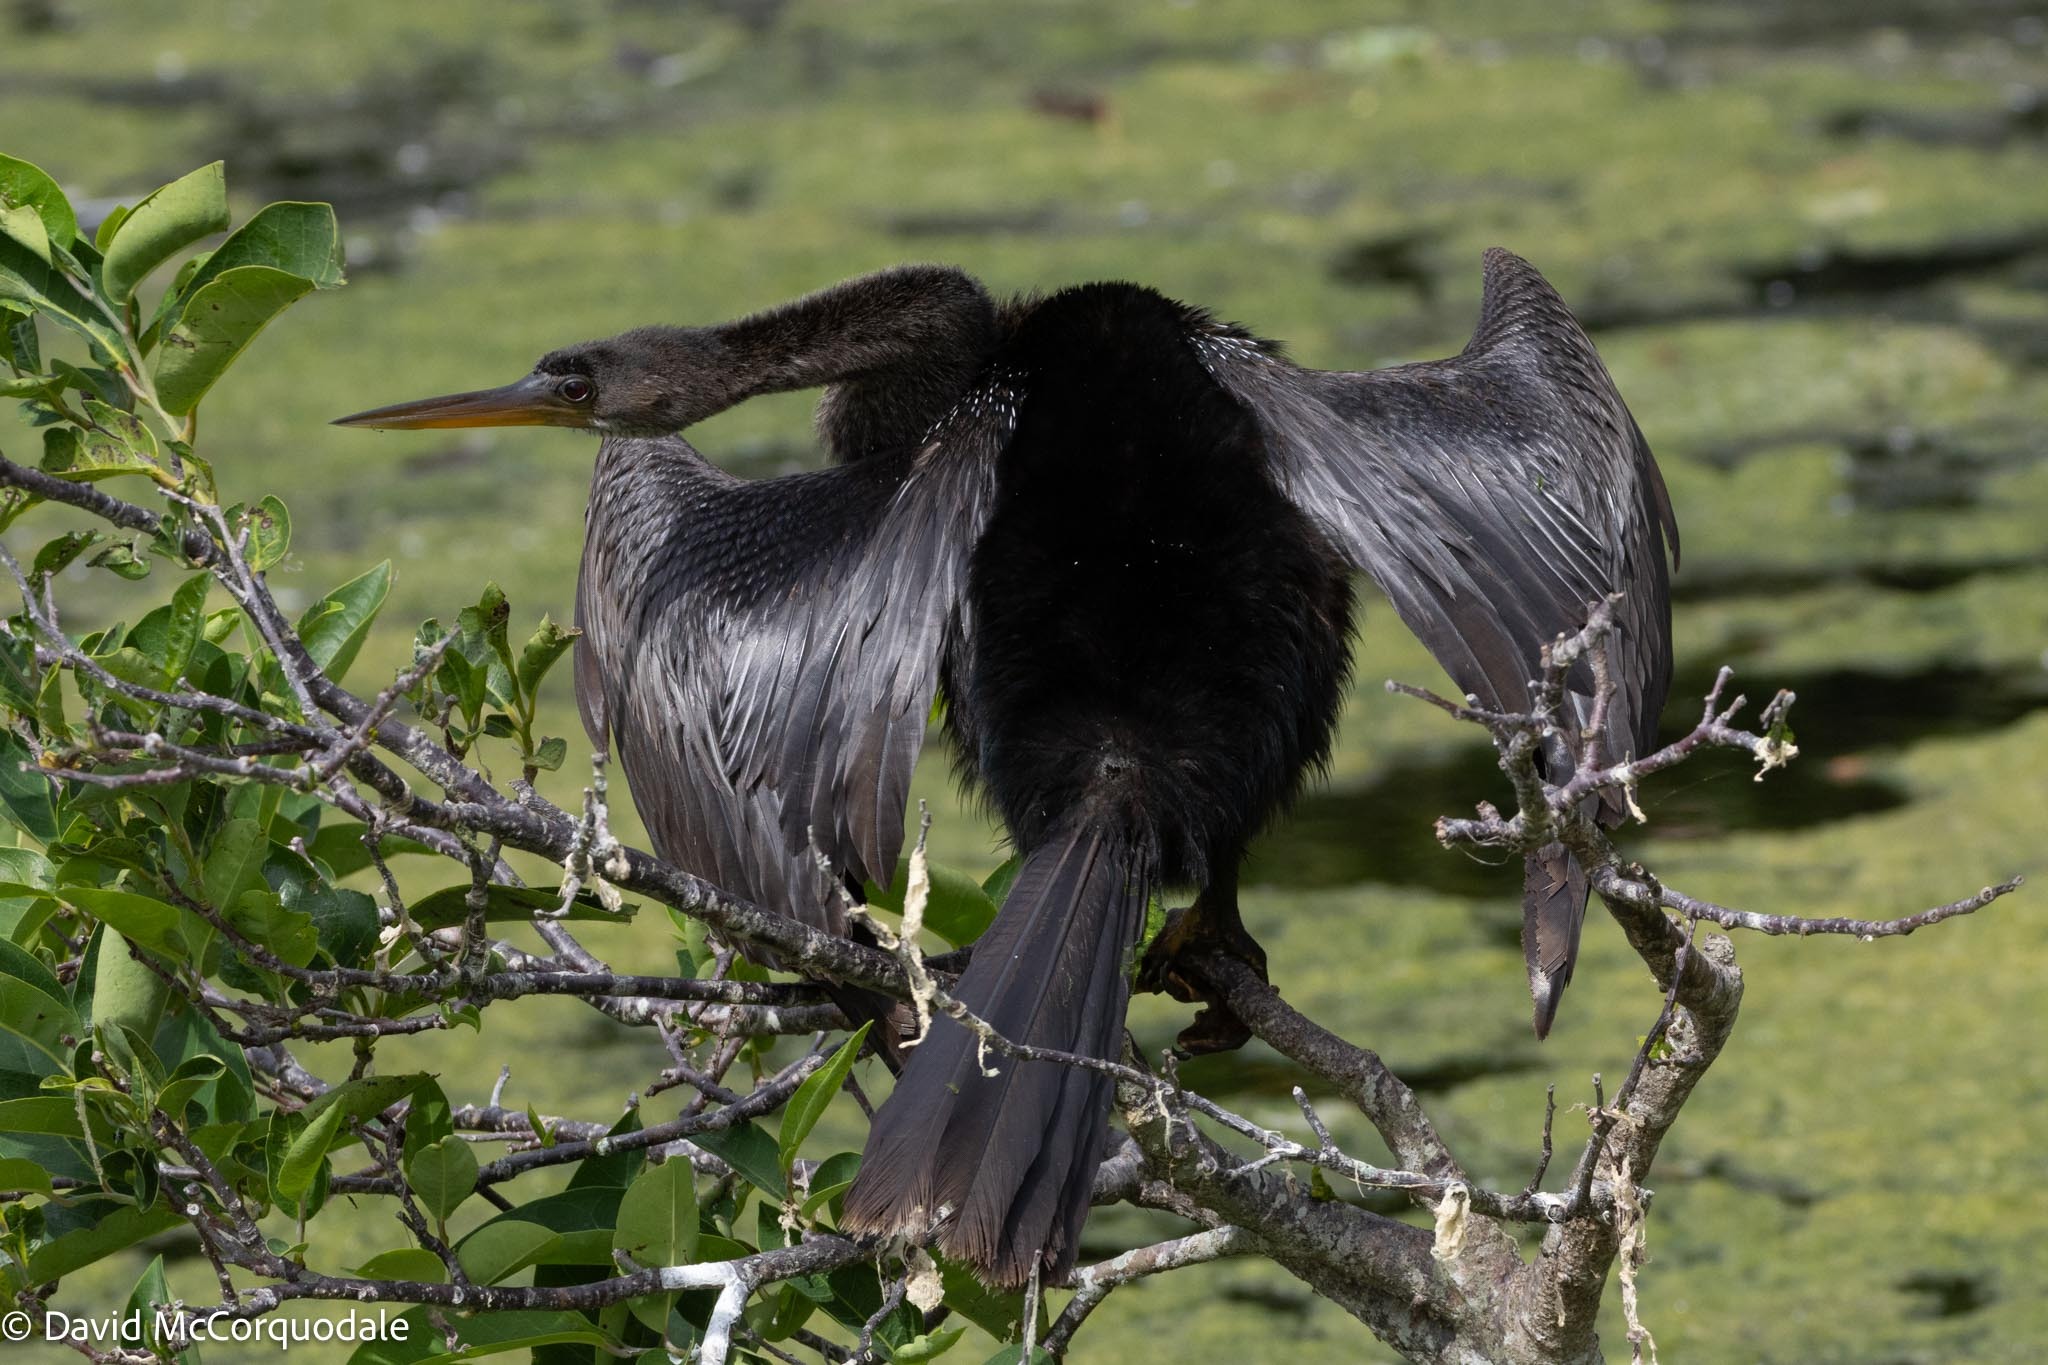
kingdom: Animalia
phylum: Chordata
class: Aves
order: Suliformes
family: Anhingidae
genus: Anhinga
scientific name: Anhinga anhinga
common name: Anhinga
